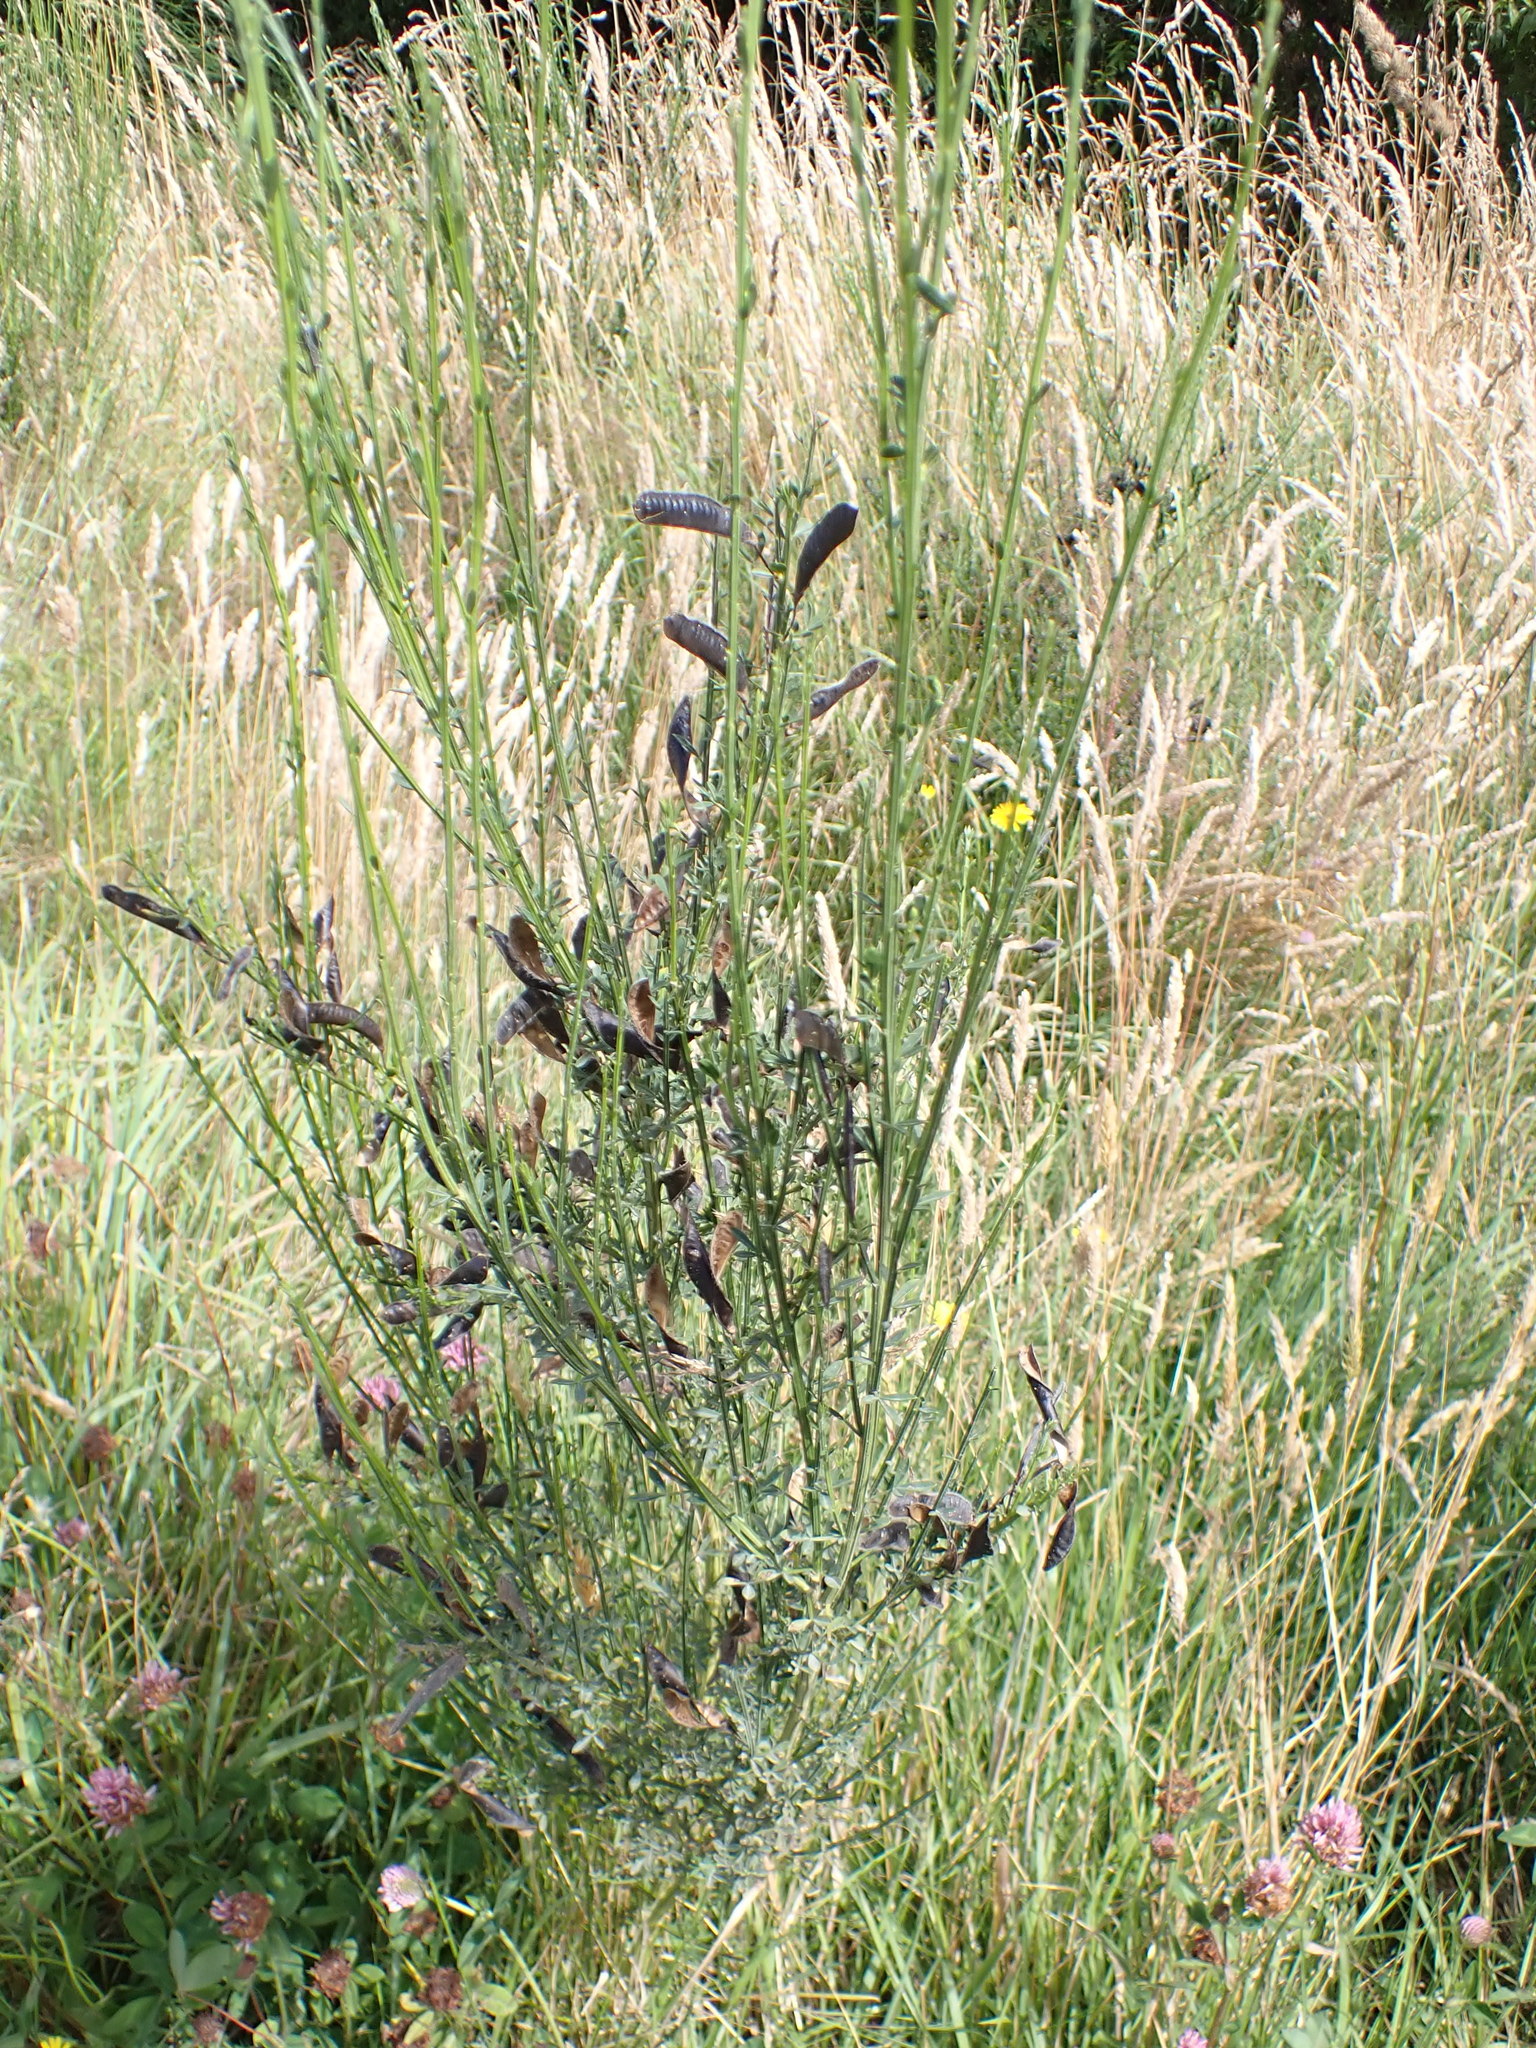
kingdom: Plantae
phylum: Tracheophyta
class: Magnoliopsida
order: Fabales
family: Fabaceae
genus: Cytisus
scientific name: Cytisus scoparius
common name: Scotch broom
